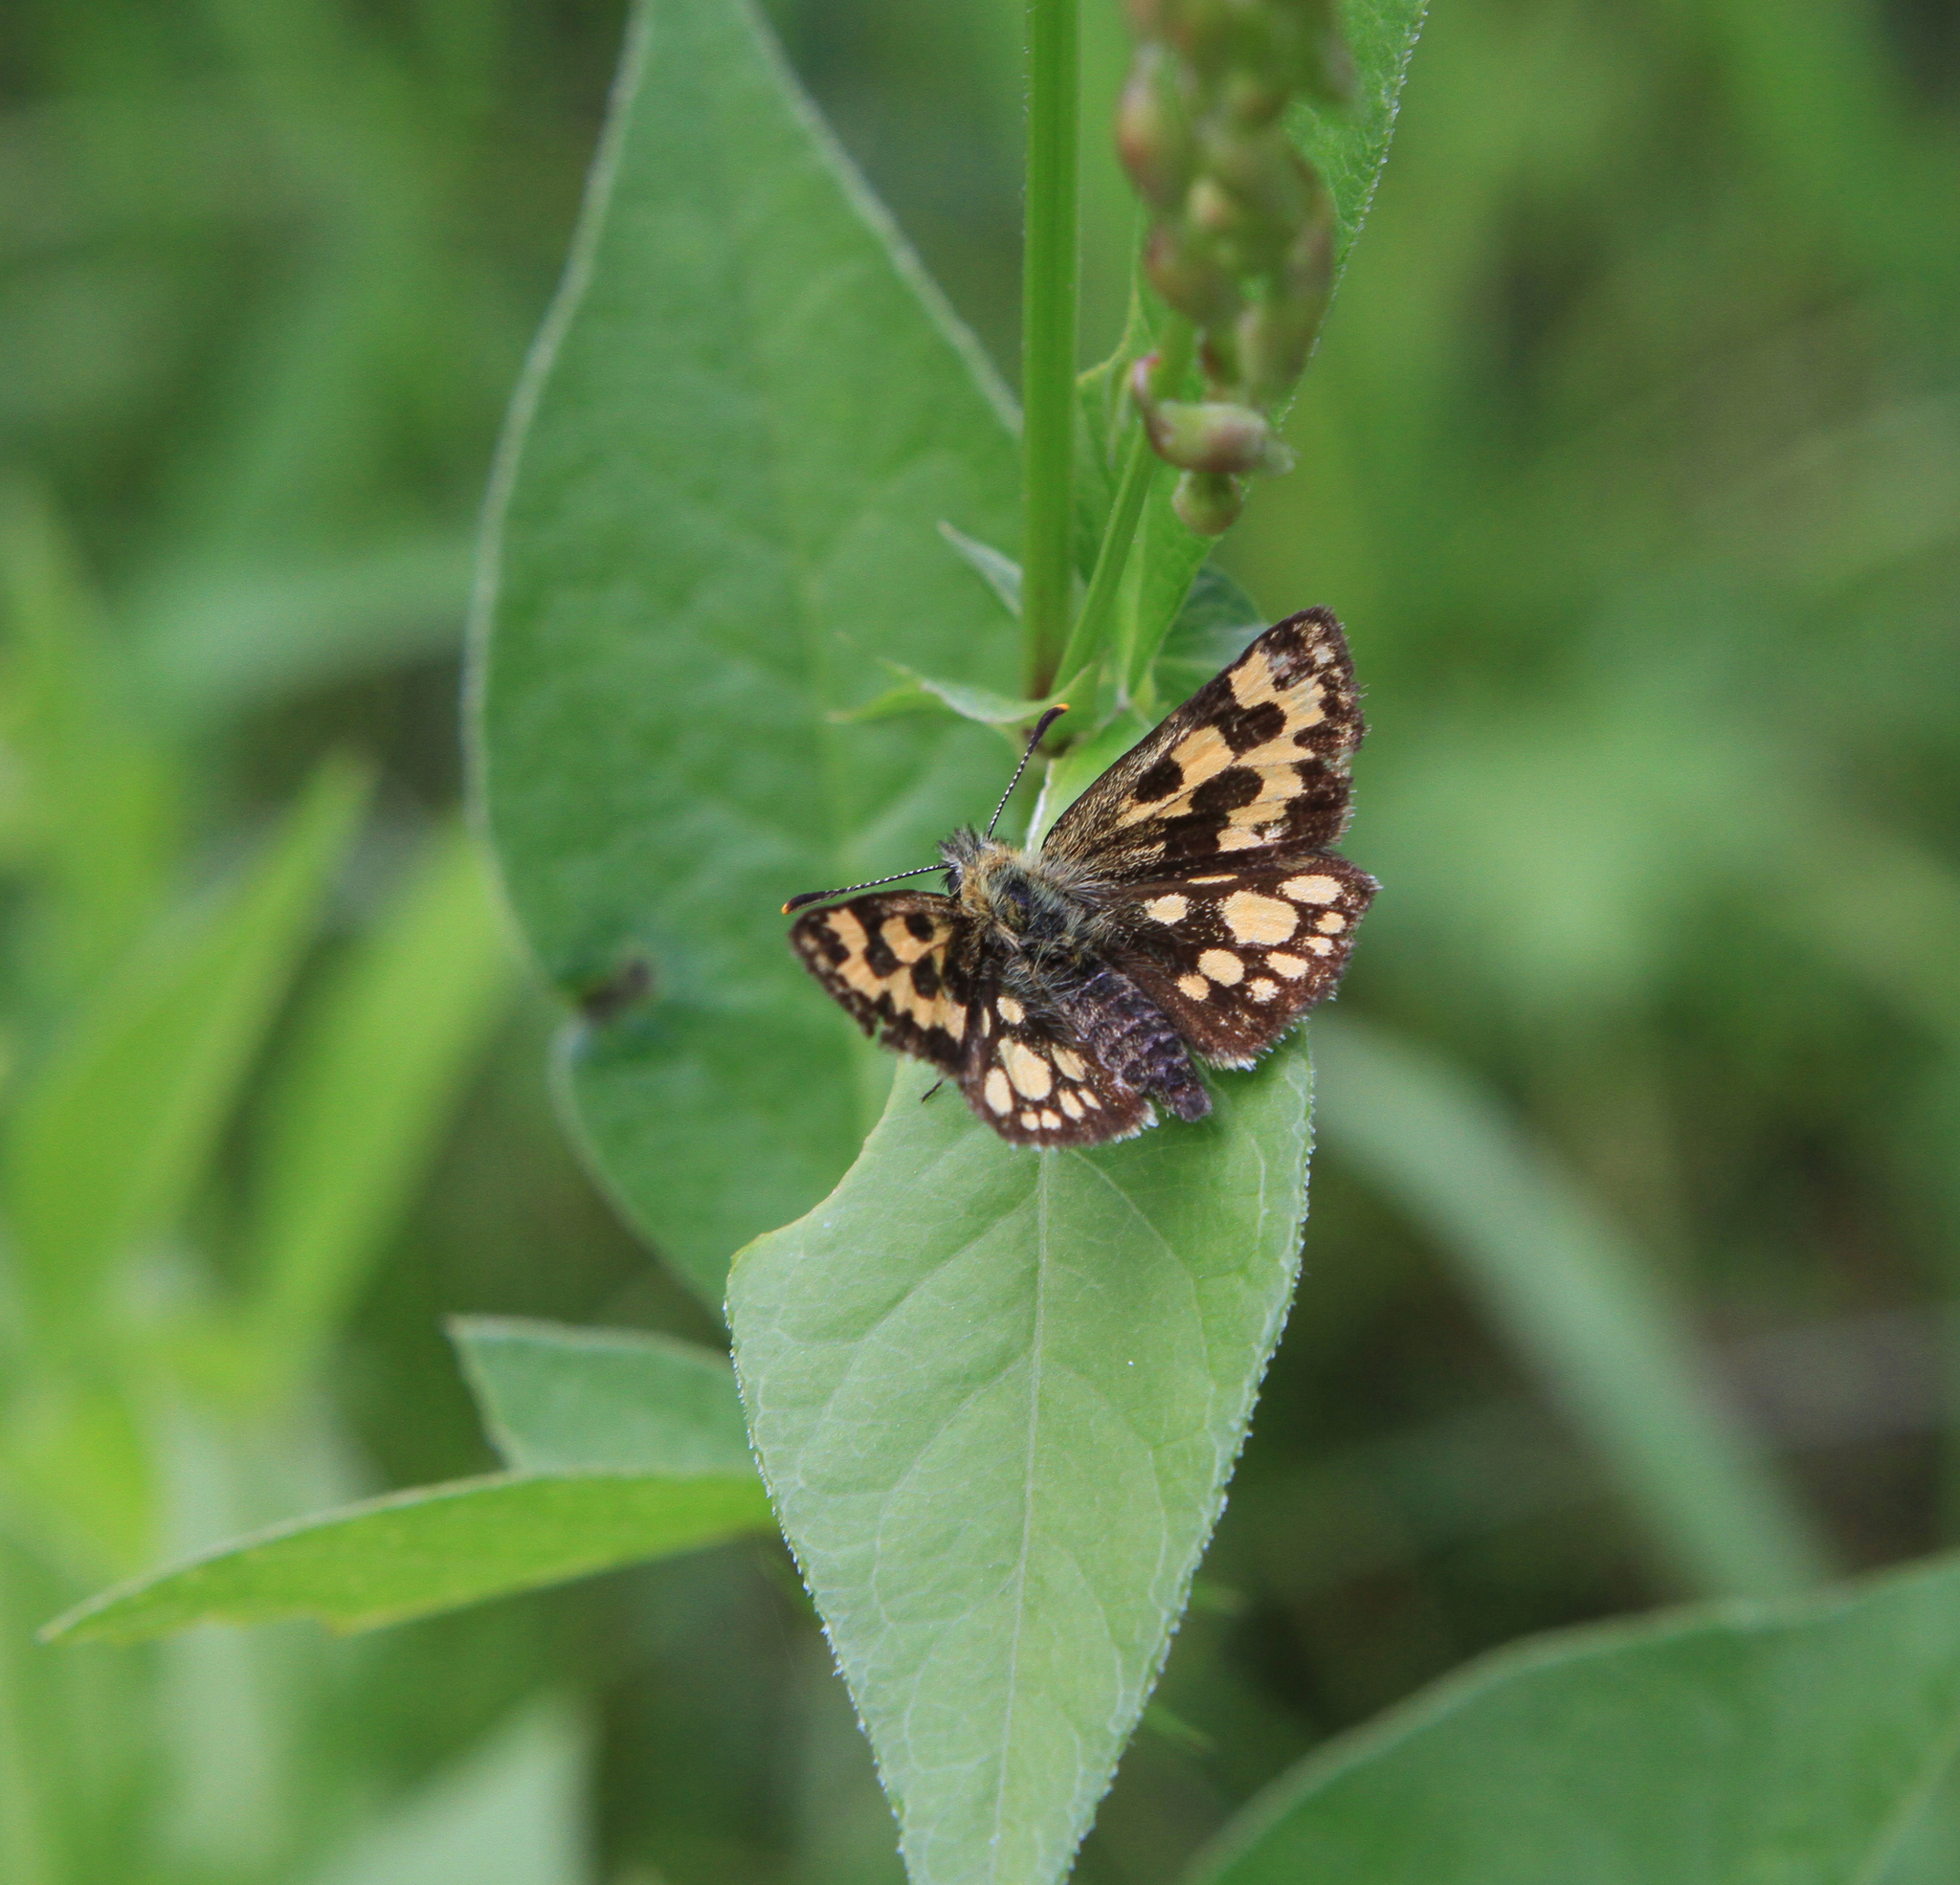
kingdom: Animalia
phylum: Arthropoda
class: Insecta
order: Lepidoptera
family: Hesperiidae
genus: Carterocephalus
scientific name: Carterocephalus silvicola
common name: Northern chequered skipper
